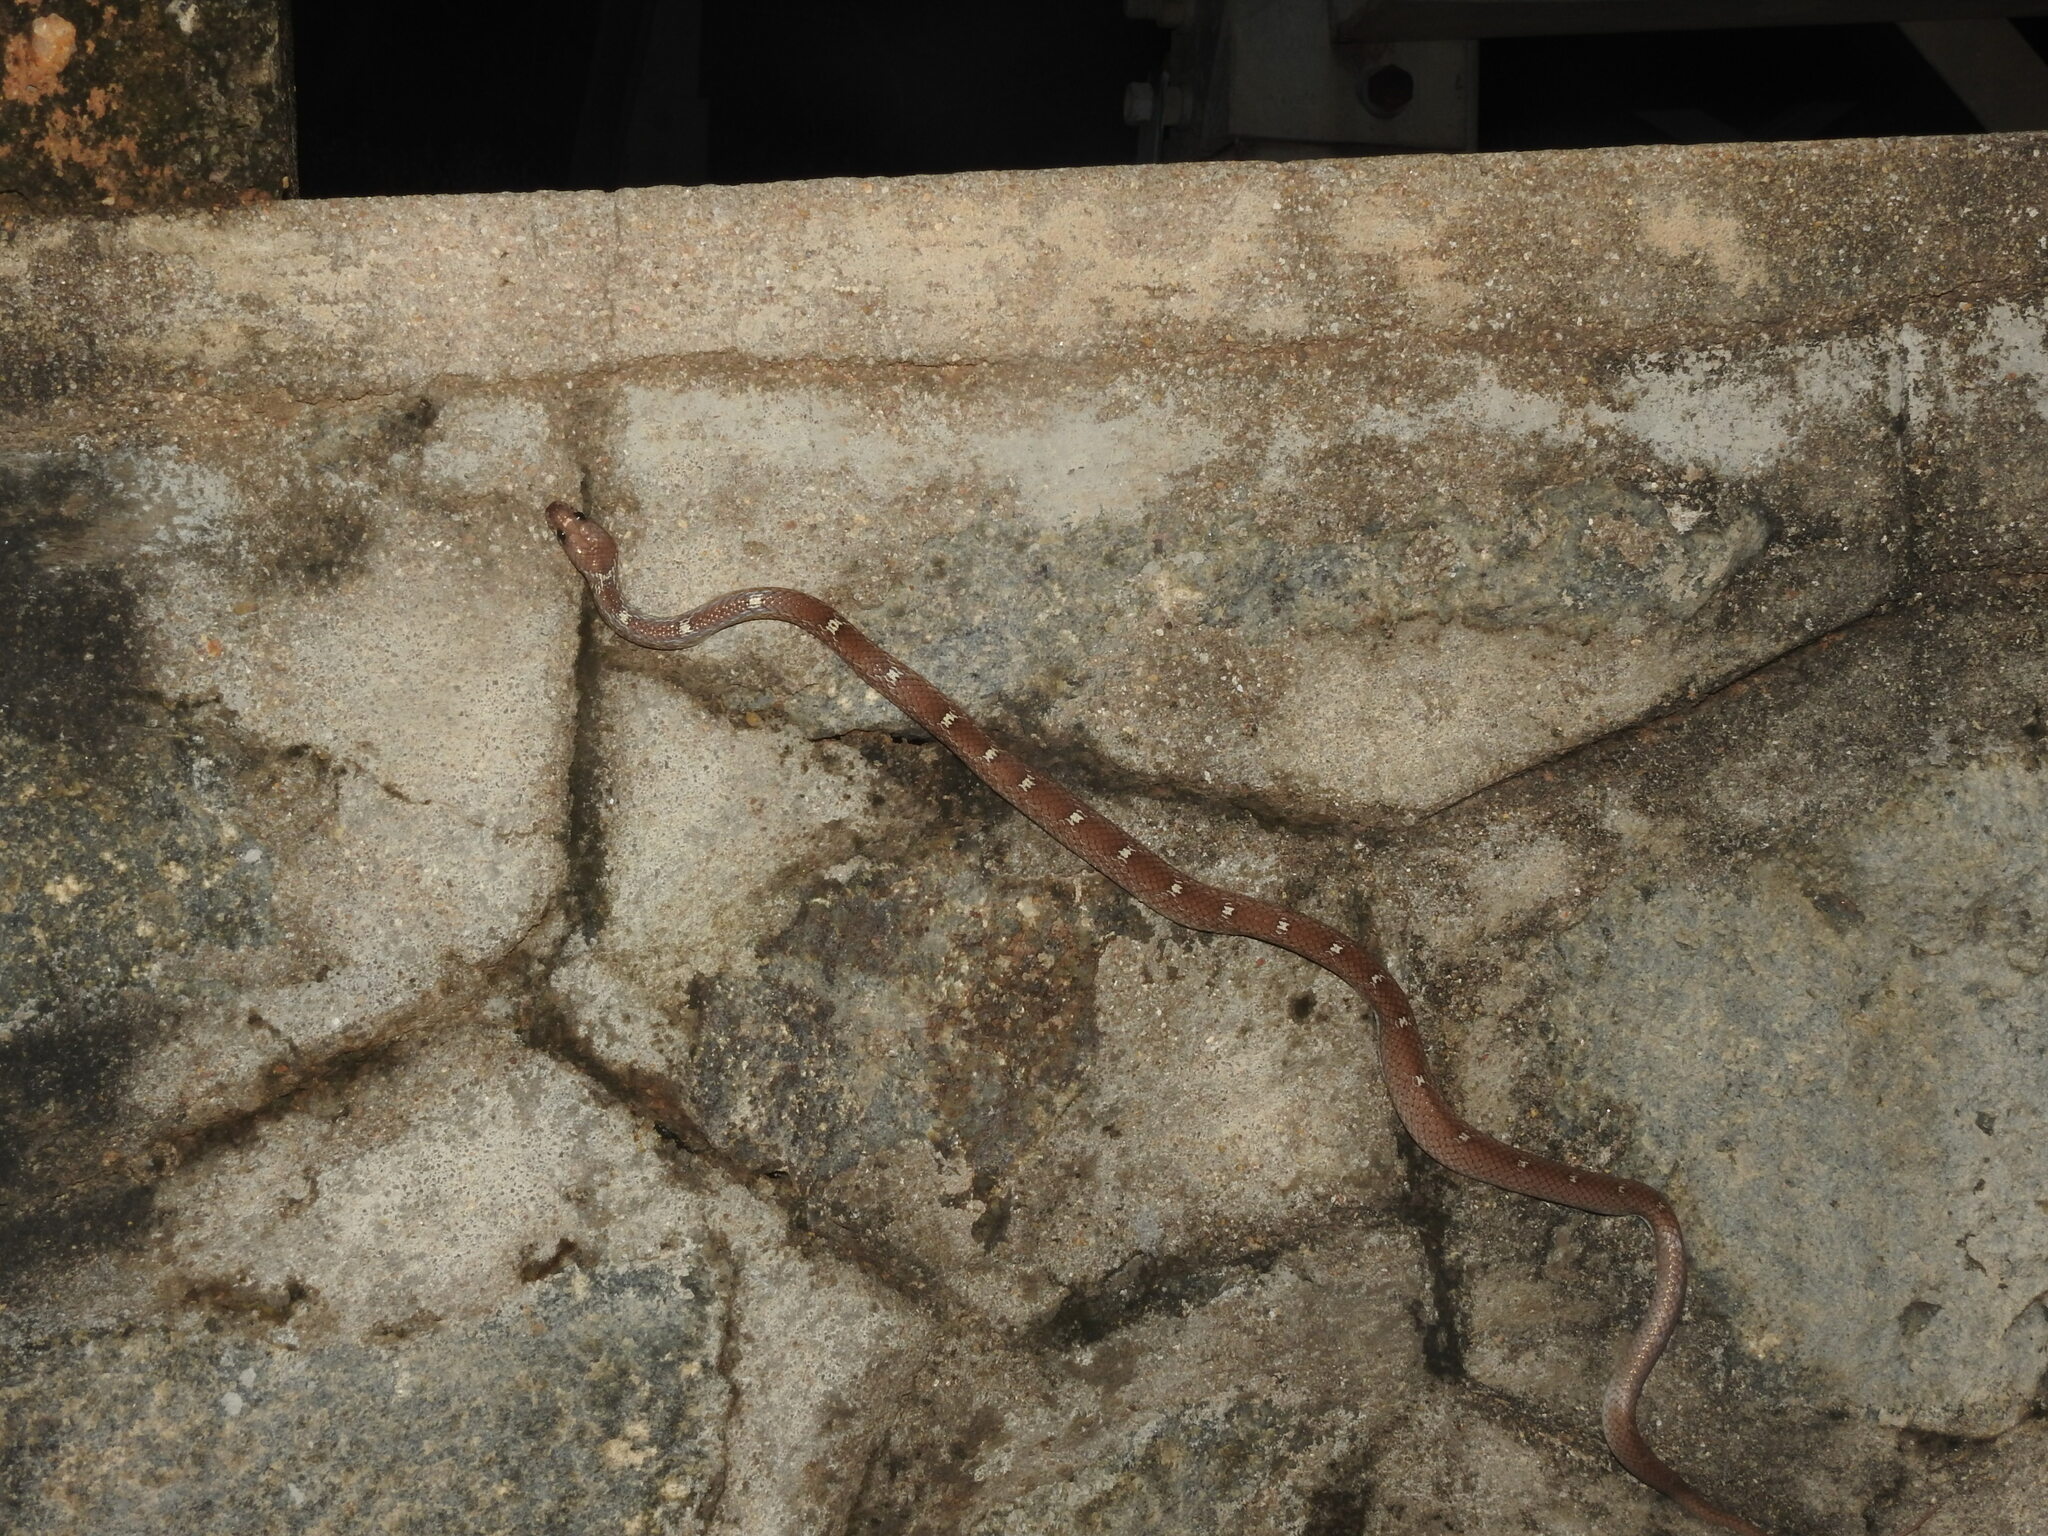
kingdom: Animalia
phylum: Chordata
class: Squamata
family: Colubridae
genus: Lycodon
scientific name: Lycodon fasciolatus
